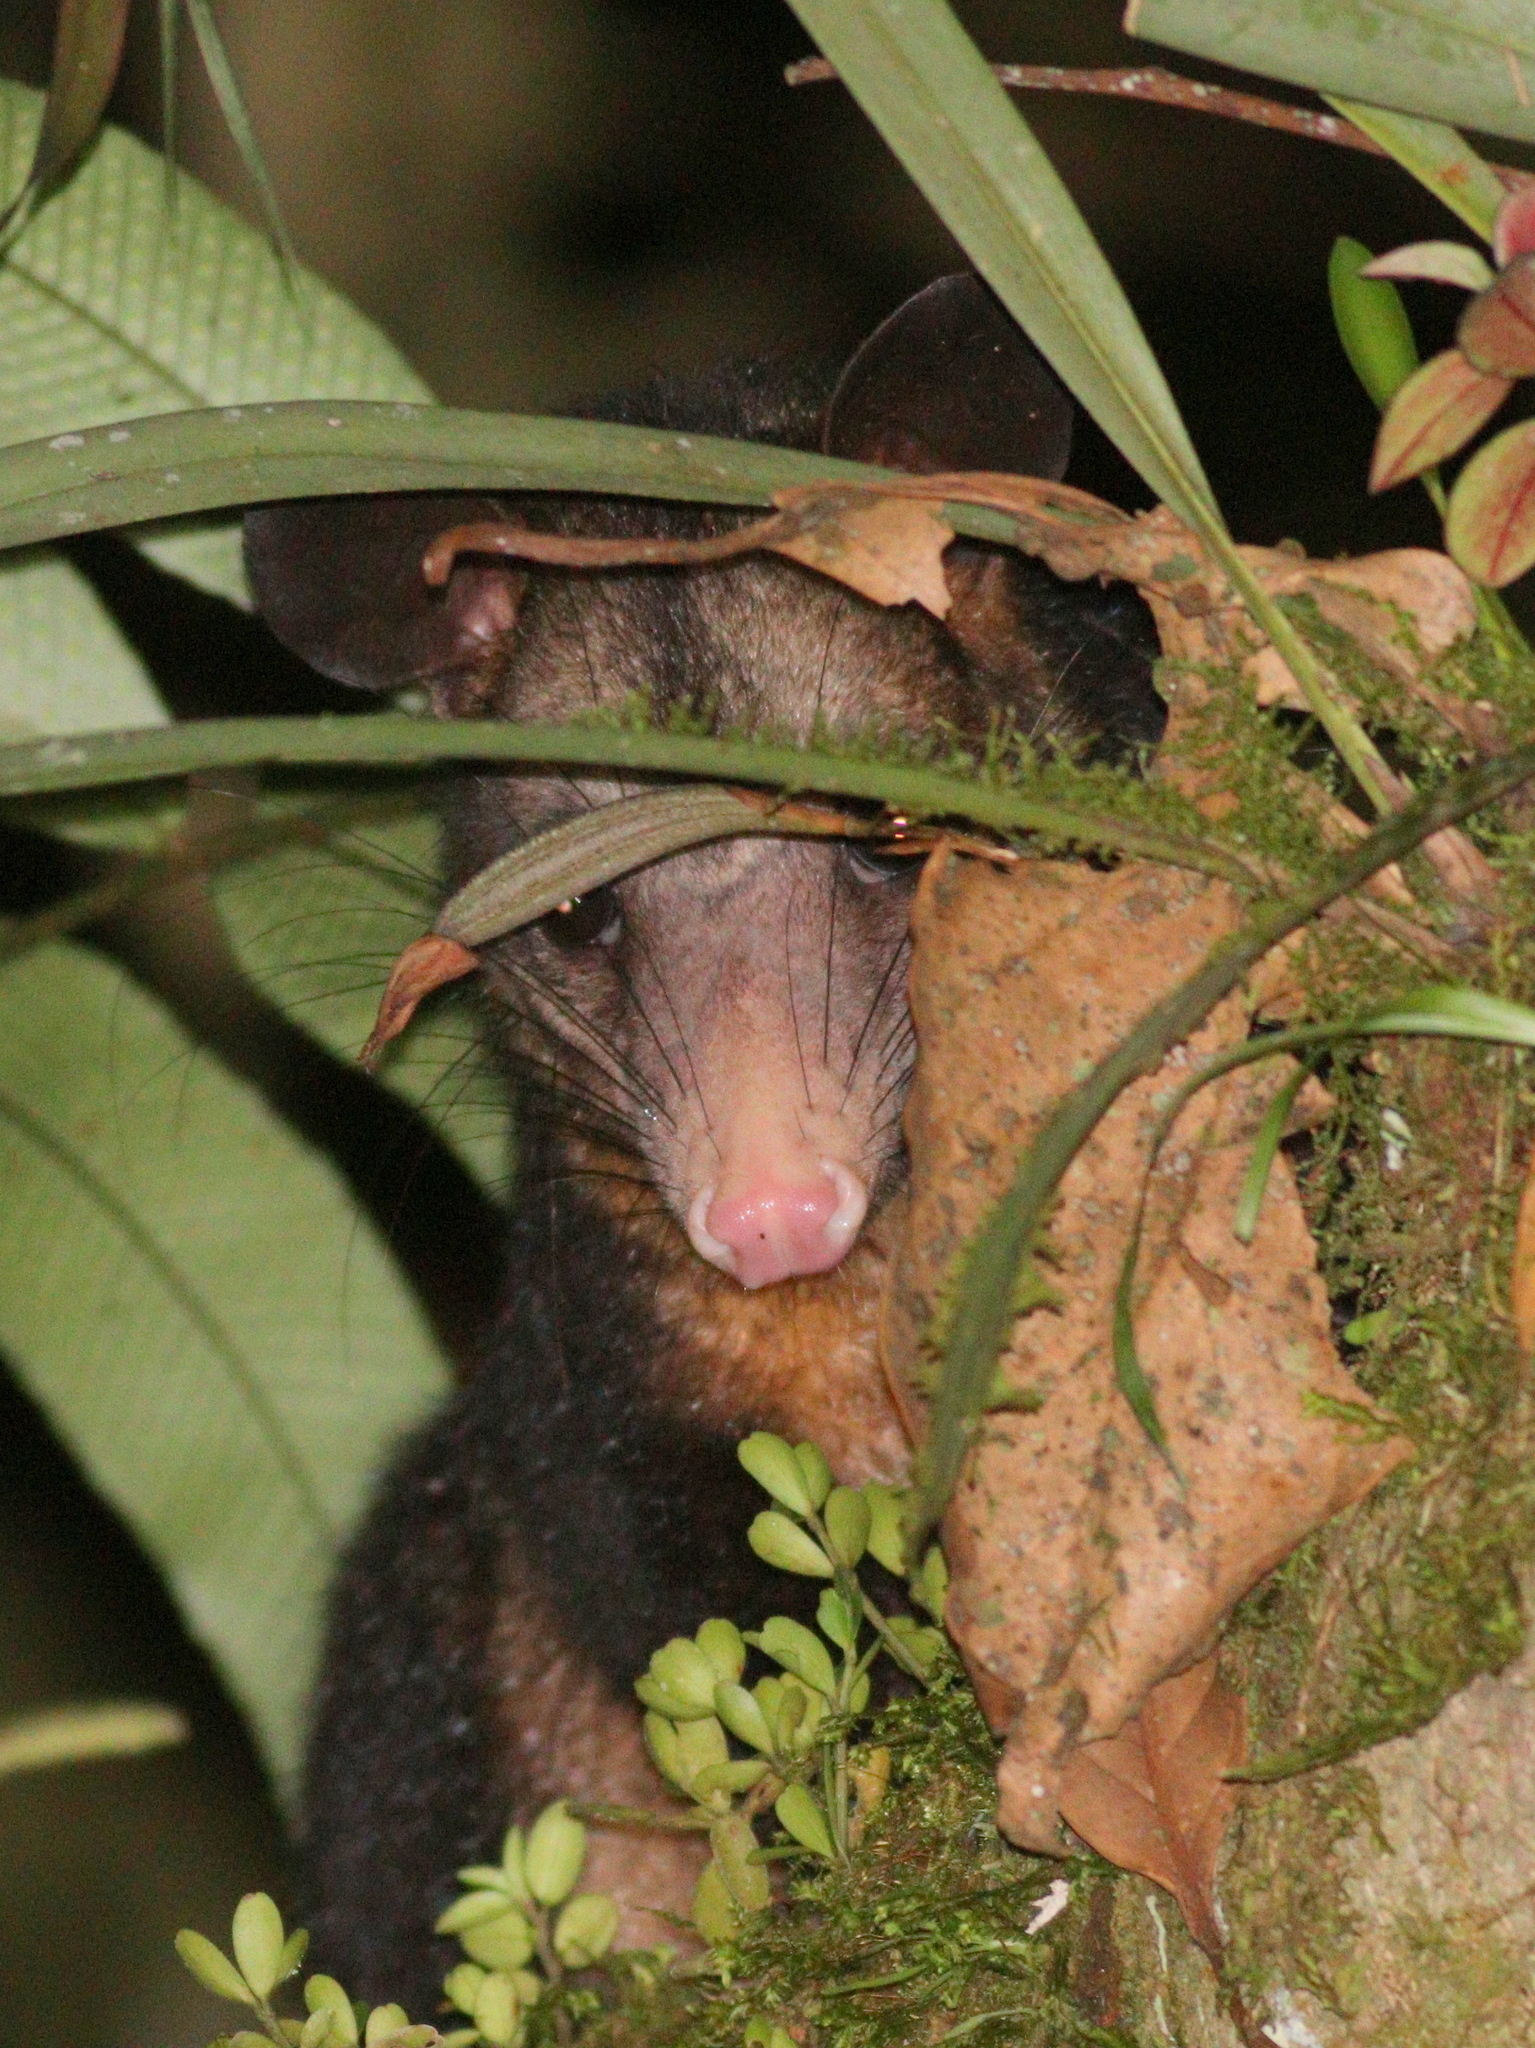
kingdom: Animalia
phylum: Chordata
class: Mammalia
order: Didelphimorphia
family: Didelphidae
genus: Didelphis
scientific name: Didelphis marsupialis
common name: Common opossum
